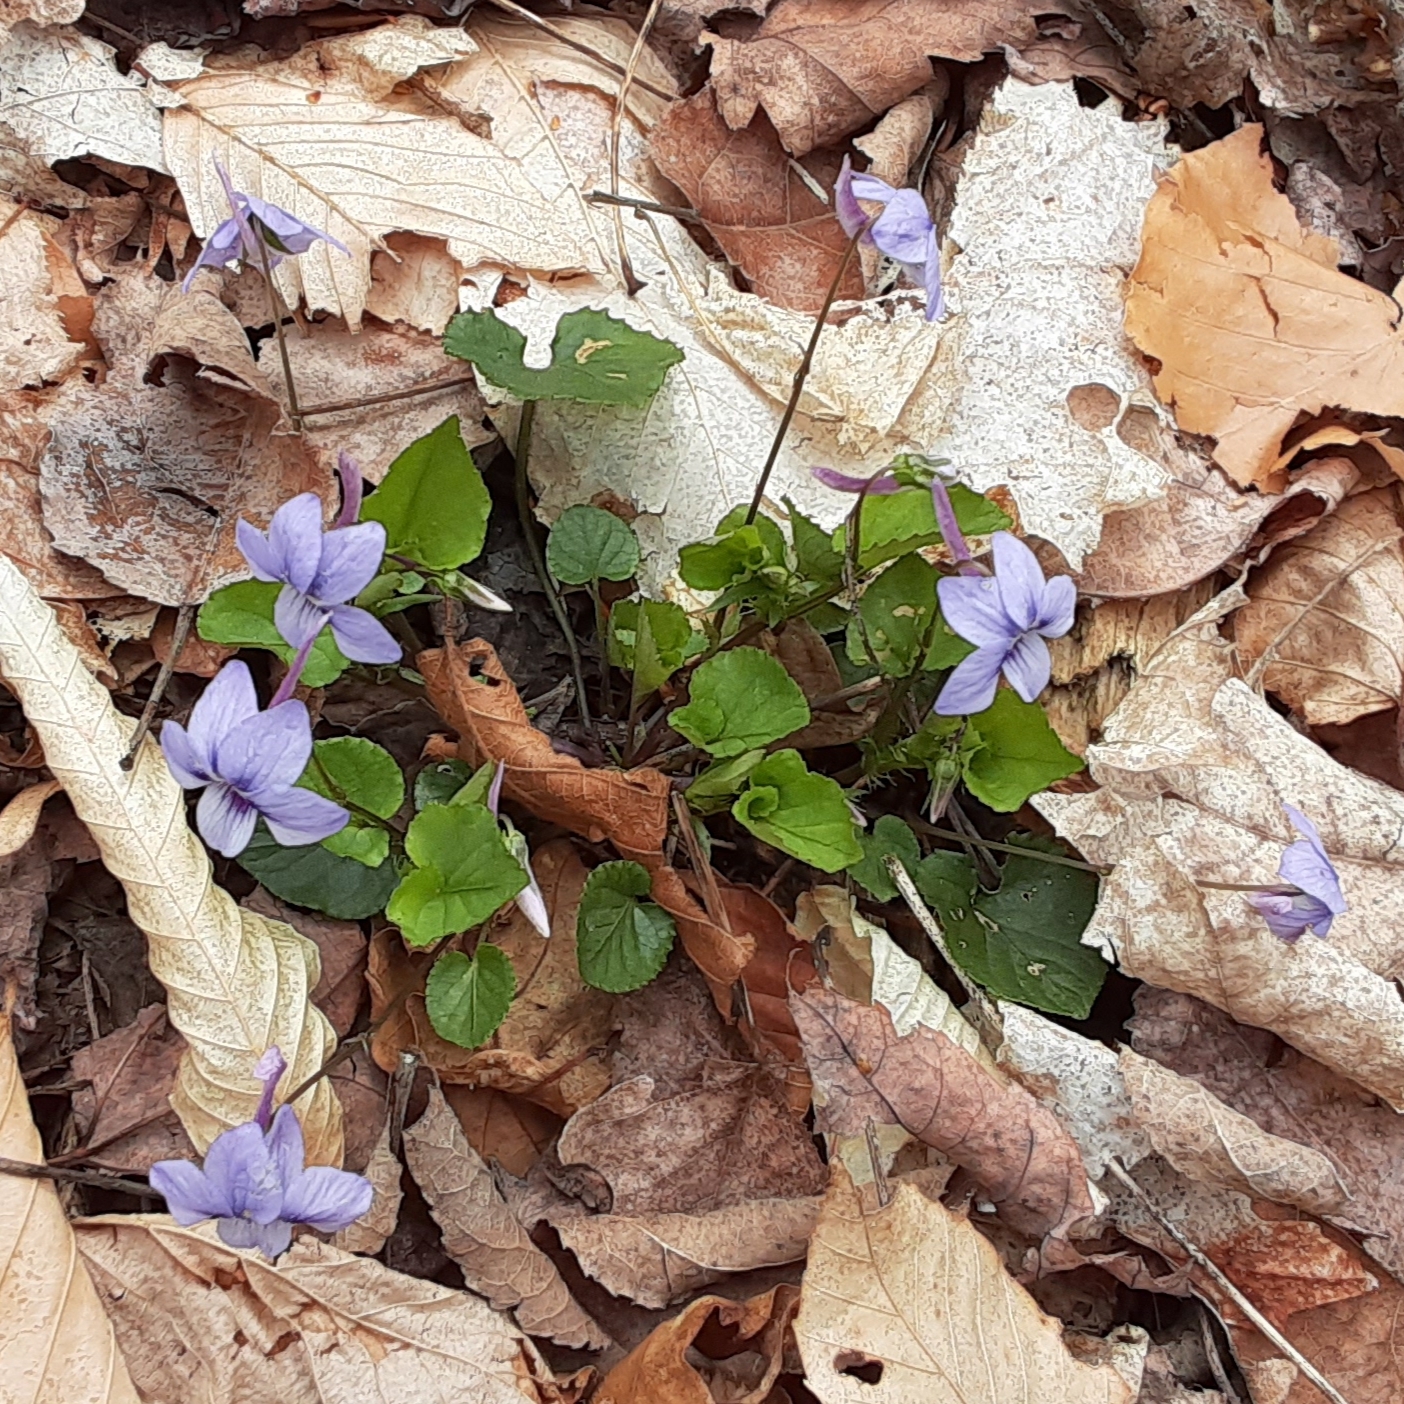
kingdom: Plantae
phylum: Tracheophyta
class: Magnoliopsida
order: Malpighiales
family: Violaceae
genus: Viola
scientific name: Viola rostrata
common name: Long-spur violet
